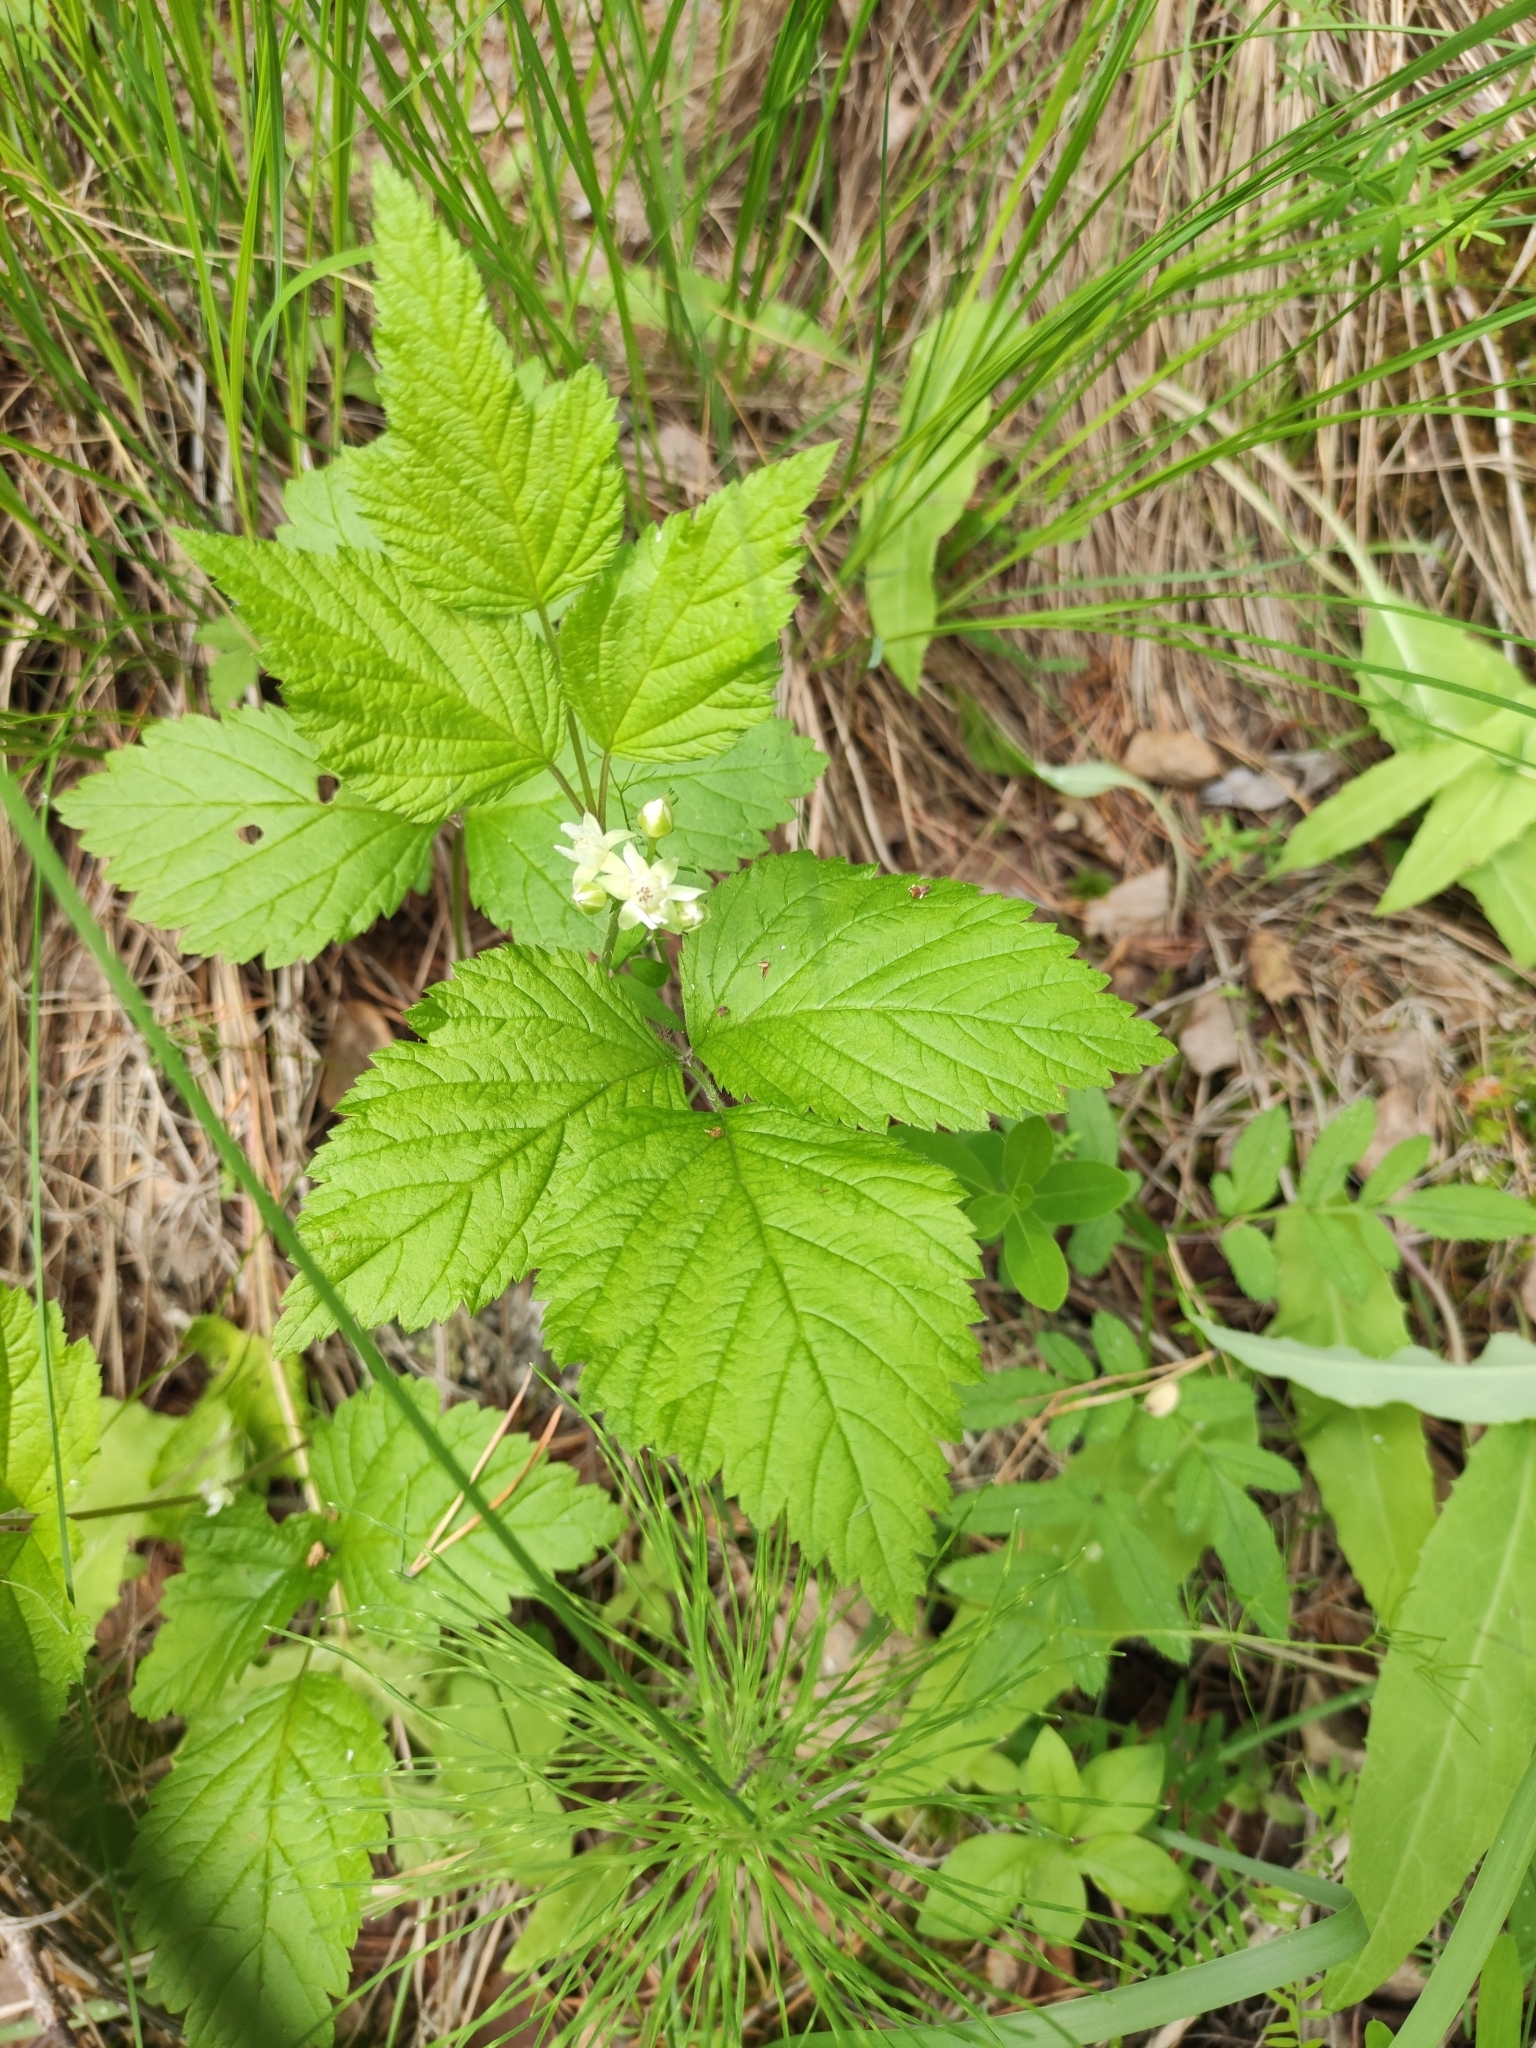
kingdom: Plantae
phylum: Tracheophyta
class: Magnoliopsida
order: Rosales
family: Rosaceae
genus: Rubus
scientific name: Rubus saxatilis
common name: Stone bramble
